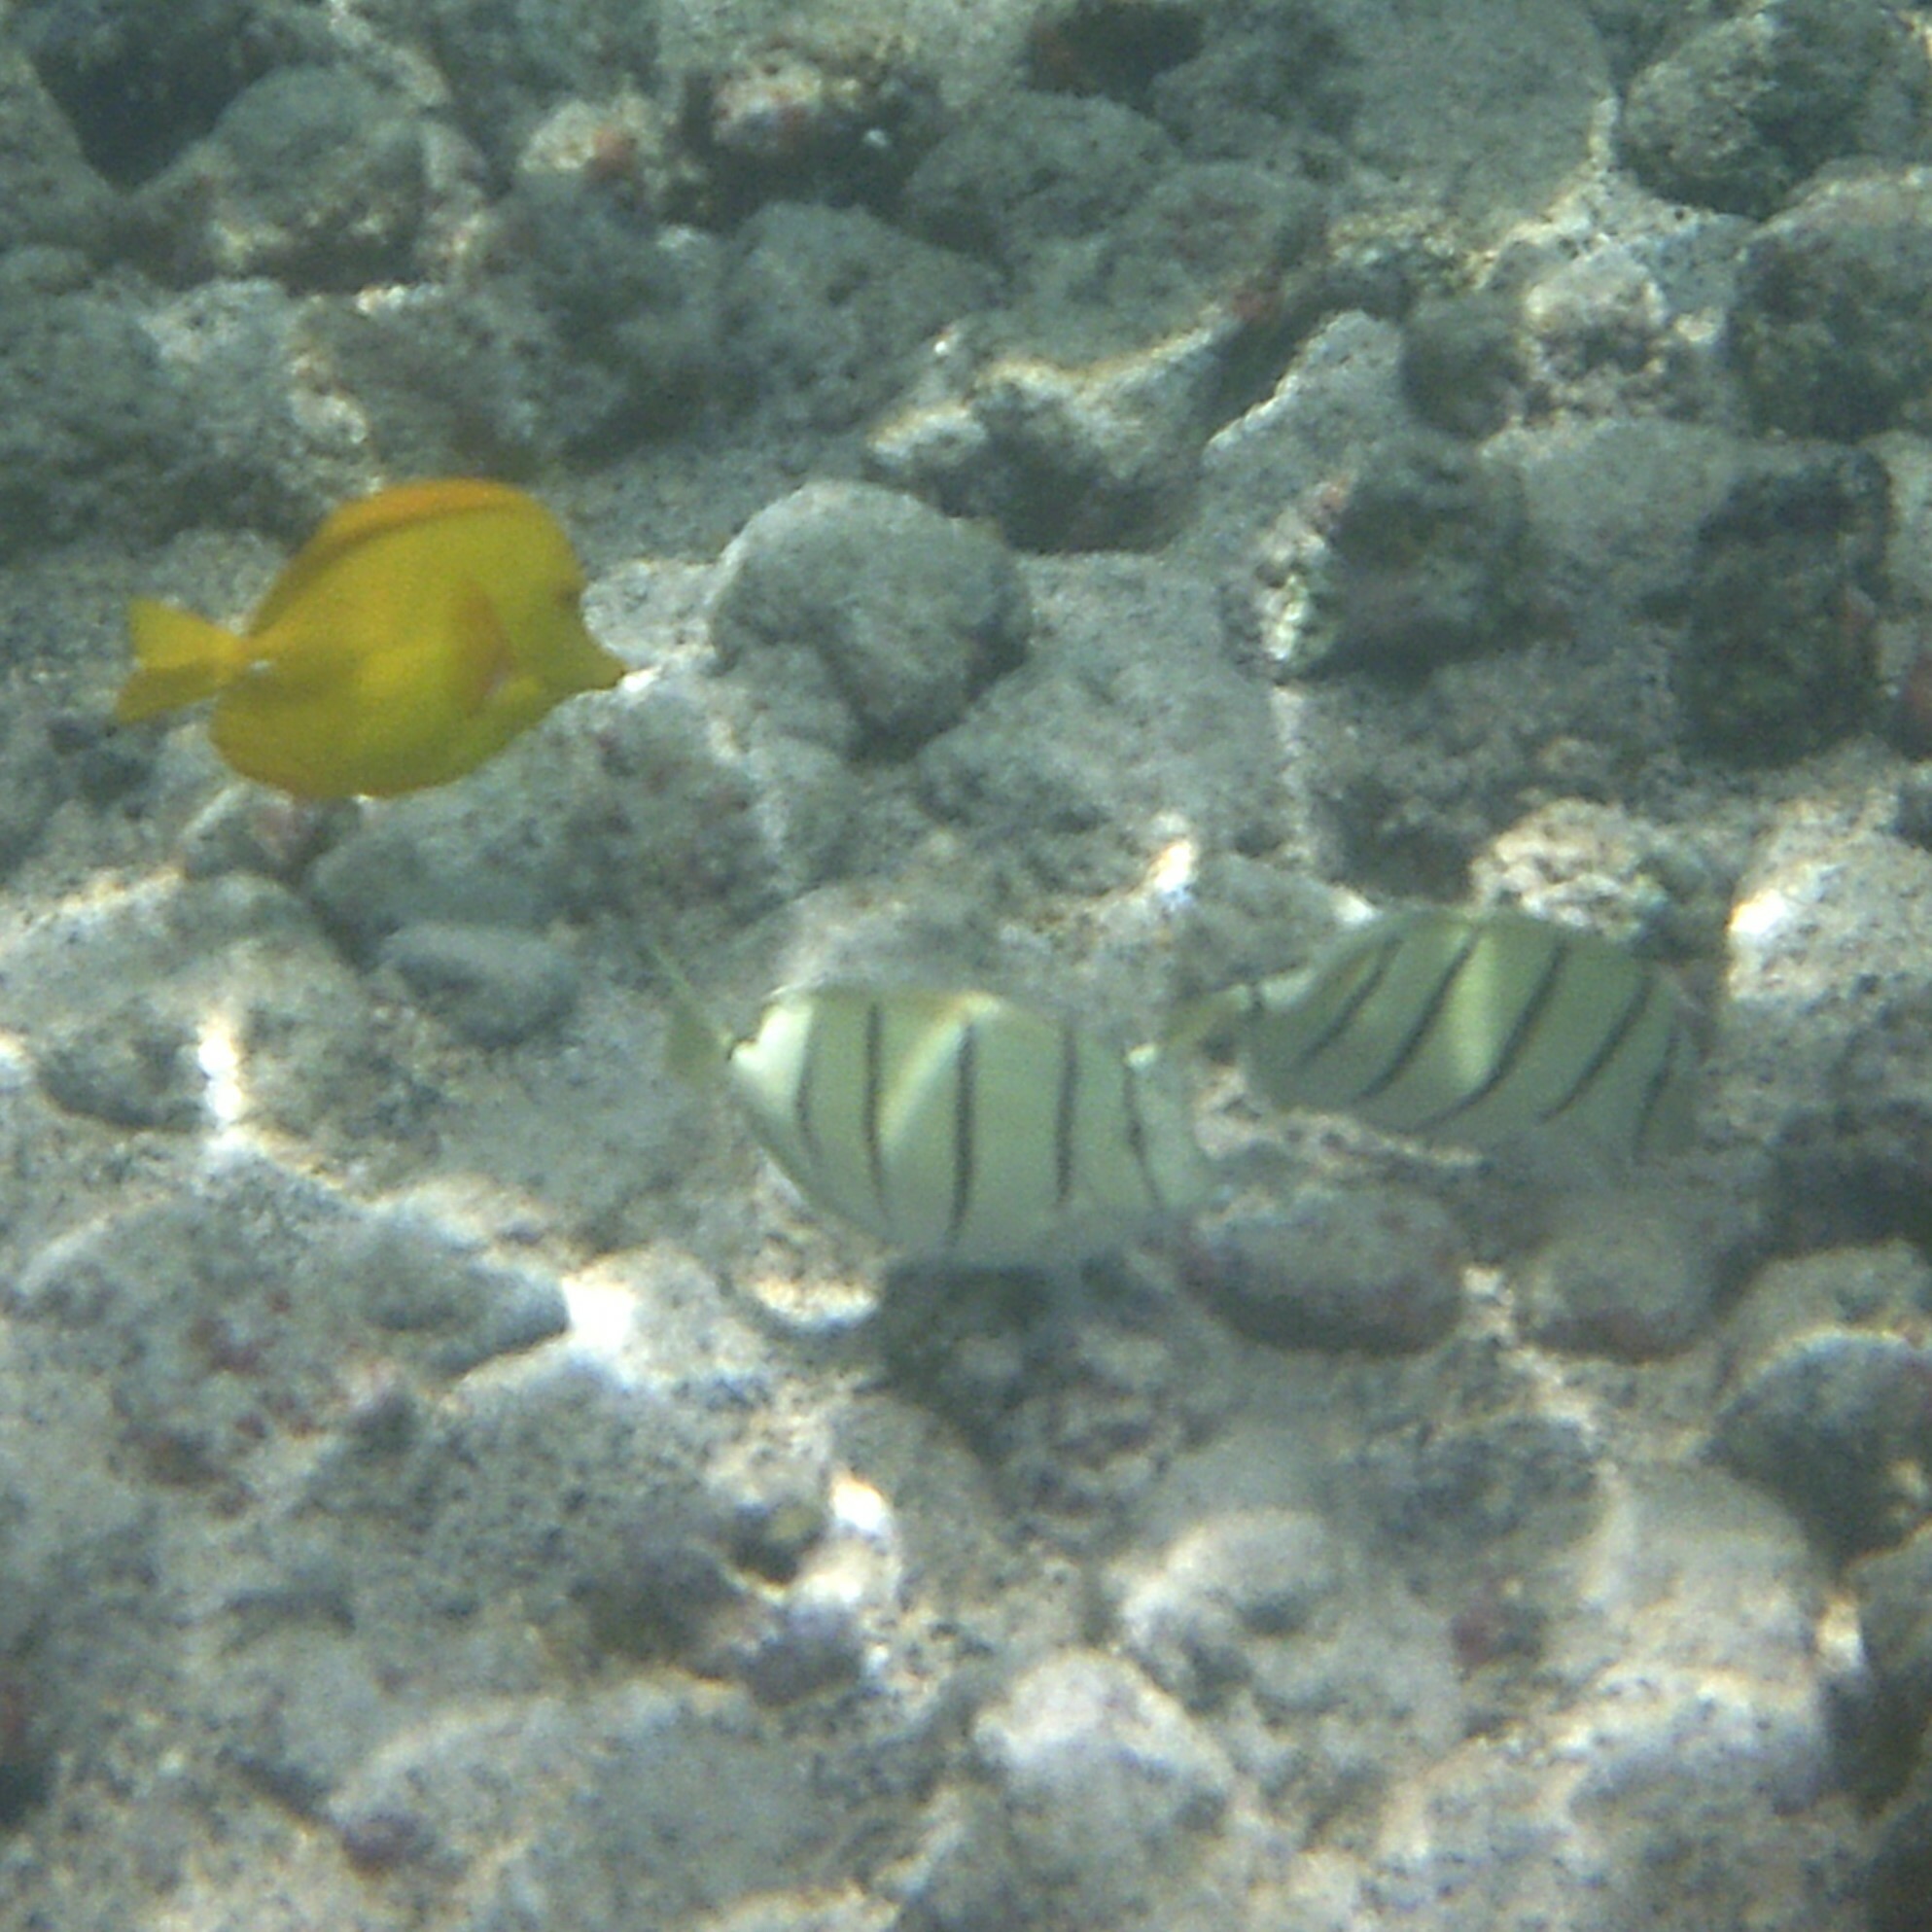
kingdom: Animalia
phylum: Chordata
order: Perciformes
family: Acanthuridae
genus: Acanthurus
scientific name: Acanthurus triostegus
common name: Convict surgeonfish
